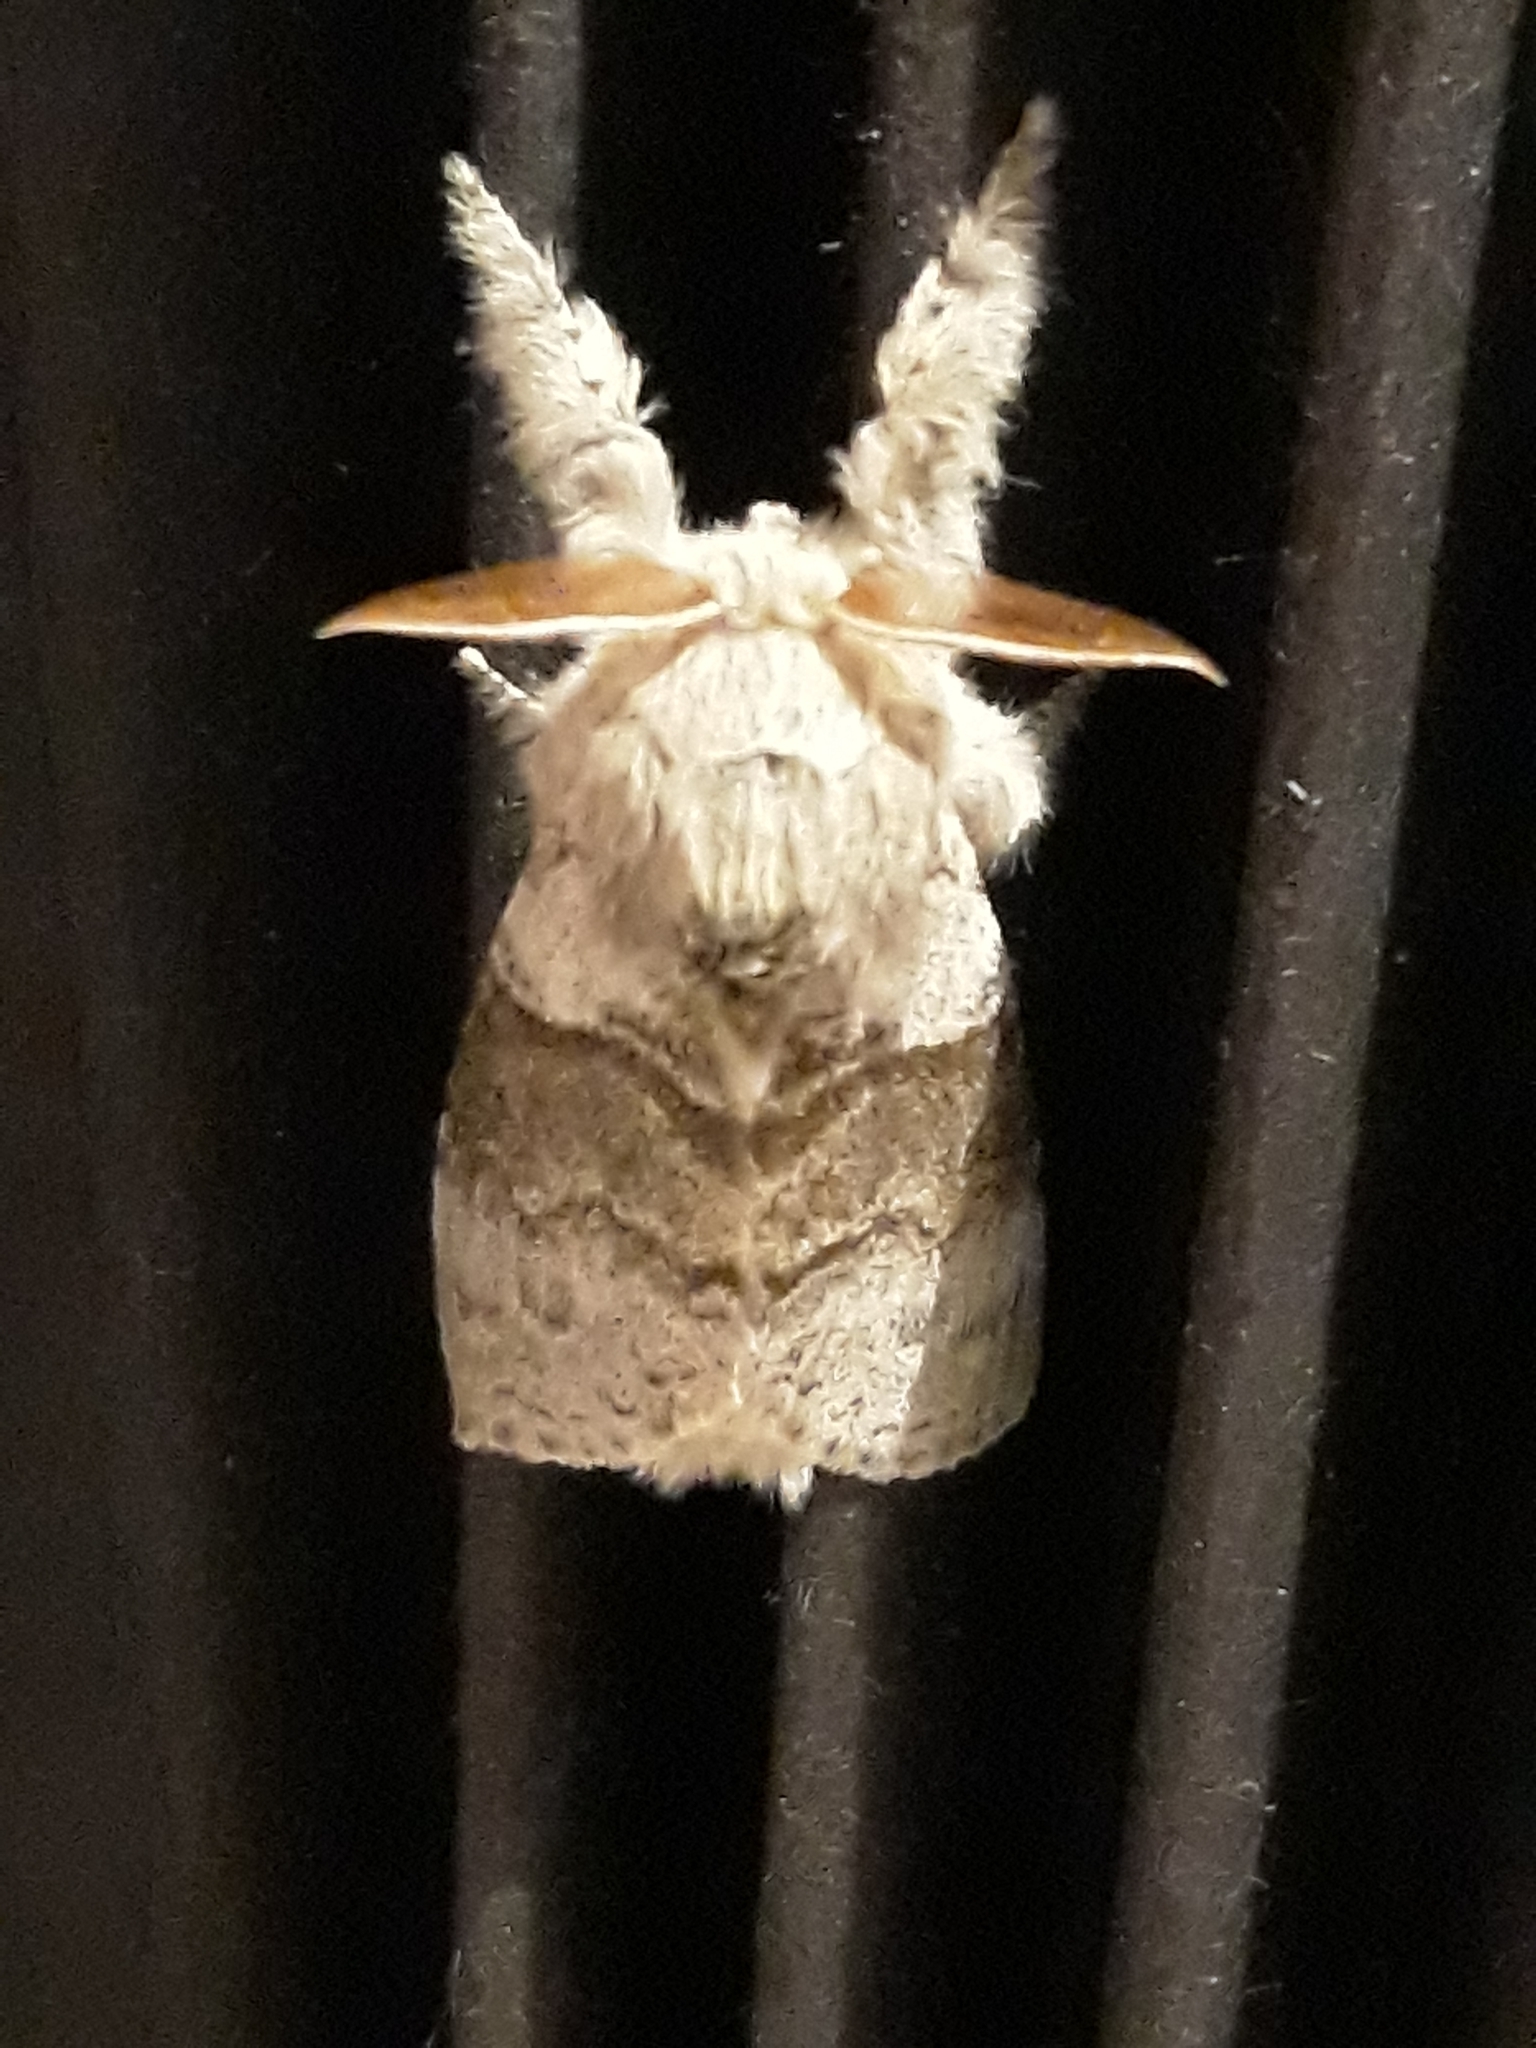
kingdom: Animalia
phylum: Arthropoda
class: Insecta
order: Lepidoptera
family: Erebidae
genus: Calliteara
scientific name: Calliteara pudibunda
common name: Pale tussock
